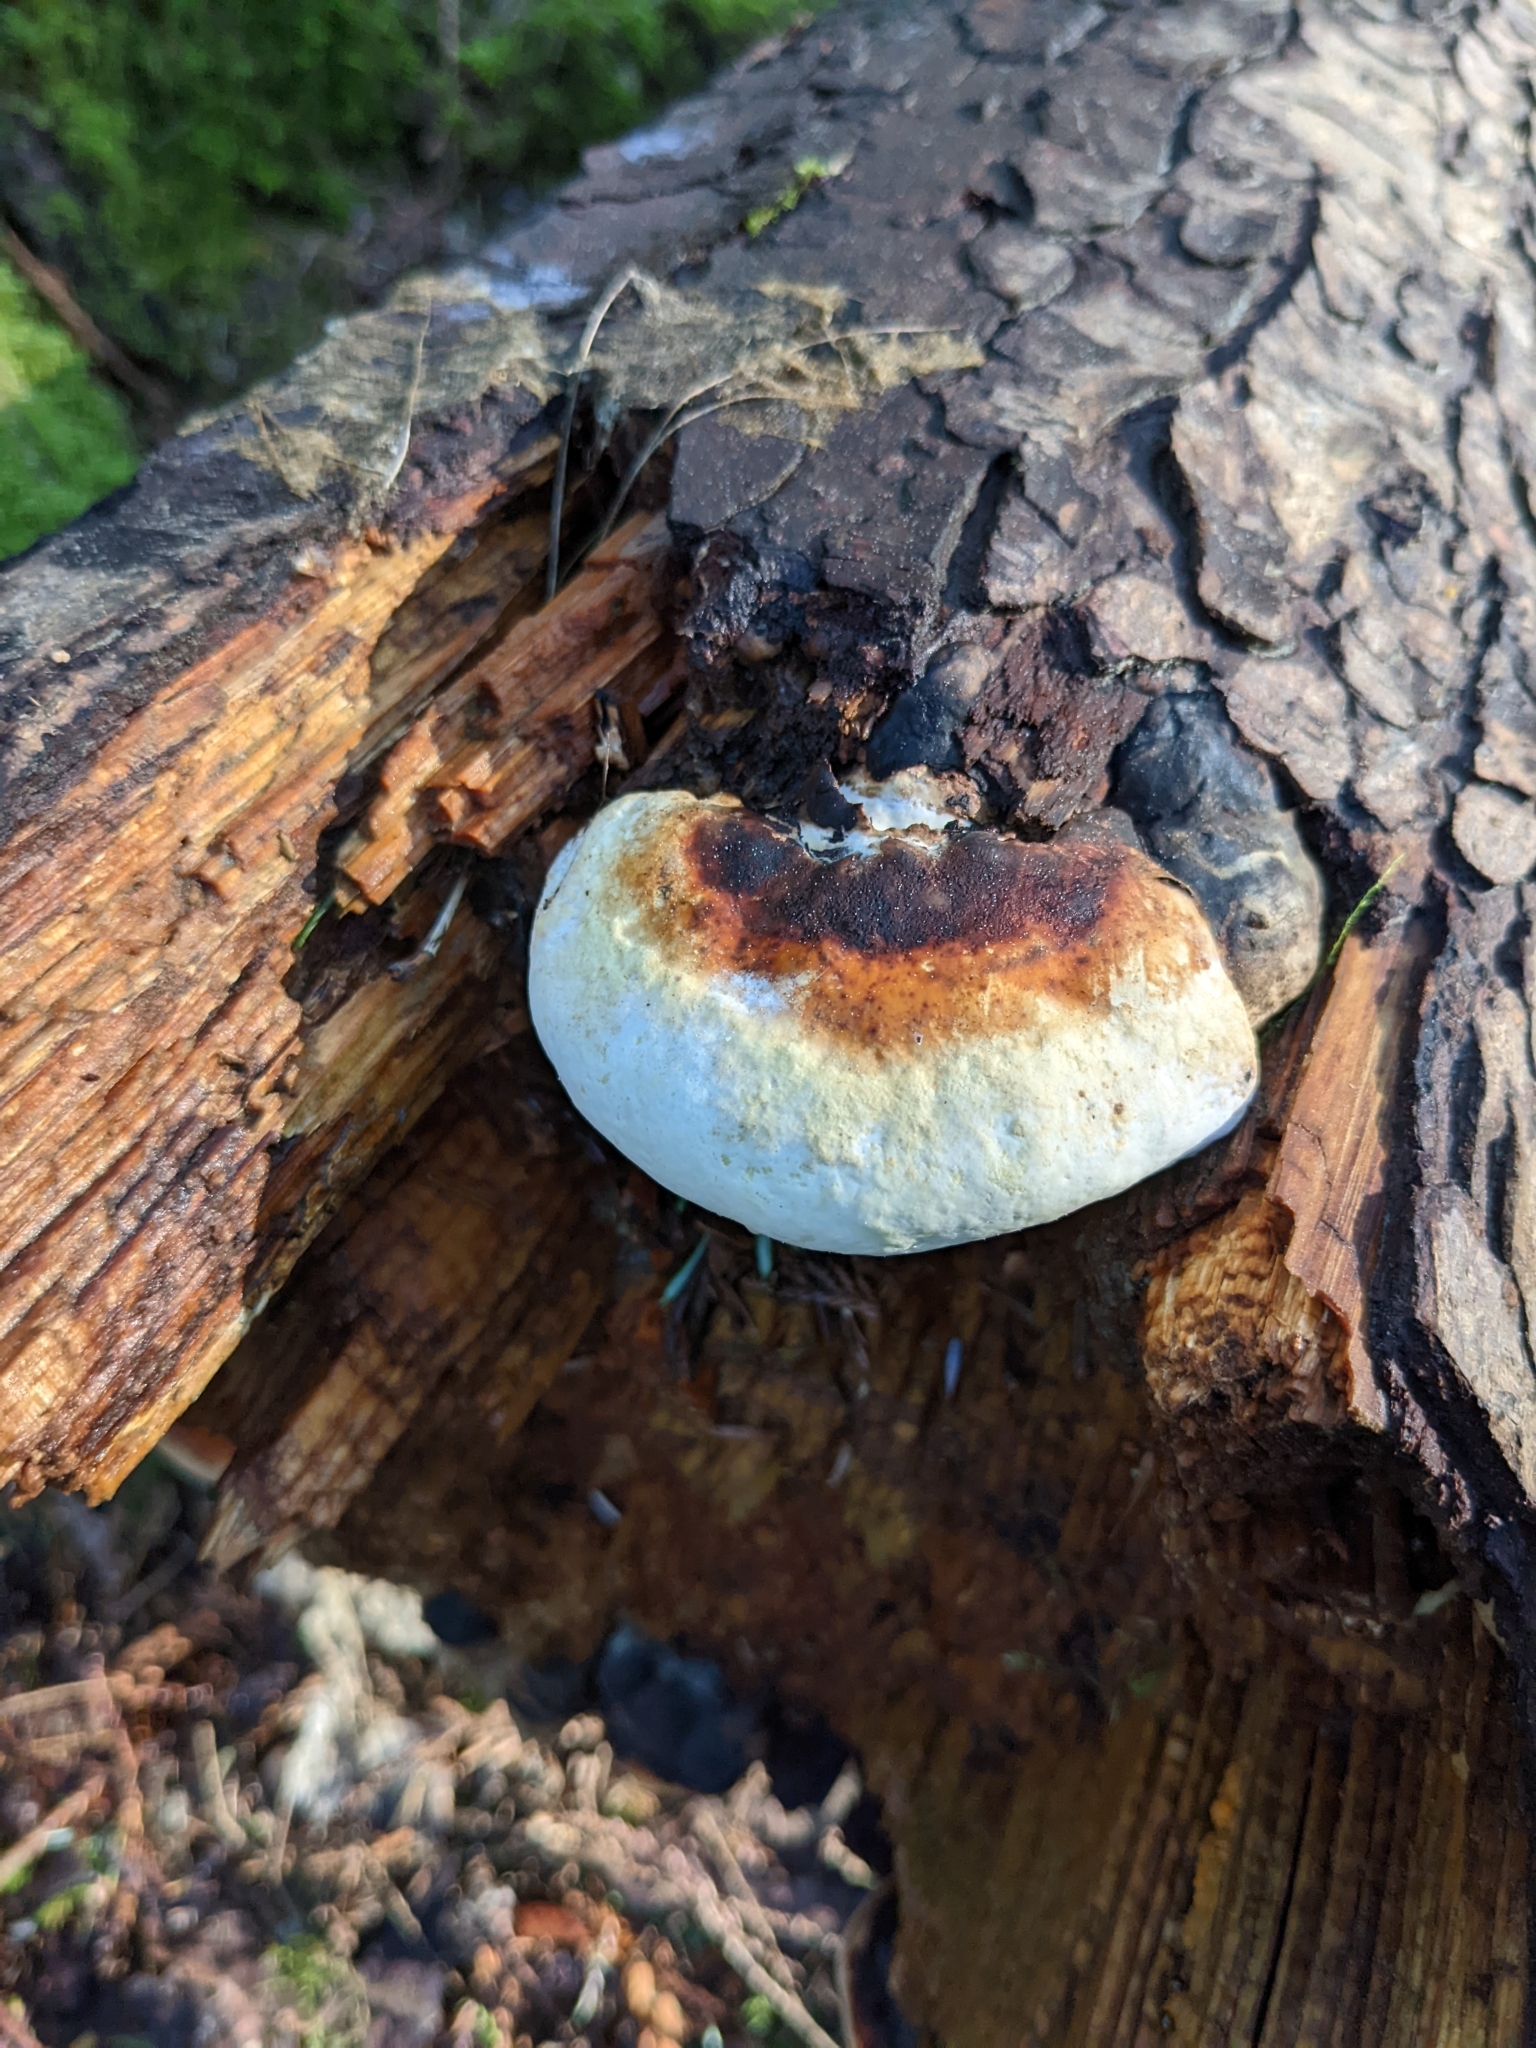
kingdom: Fungi
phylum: Basidiomycota
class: Agaricomycetes
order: Polyporales
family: Fomitopsidaceae
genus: Fomitopsis
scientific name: Fomitopsis mounceae
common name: Northern red belt
